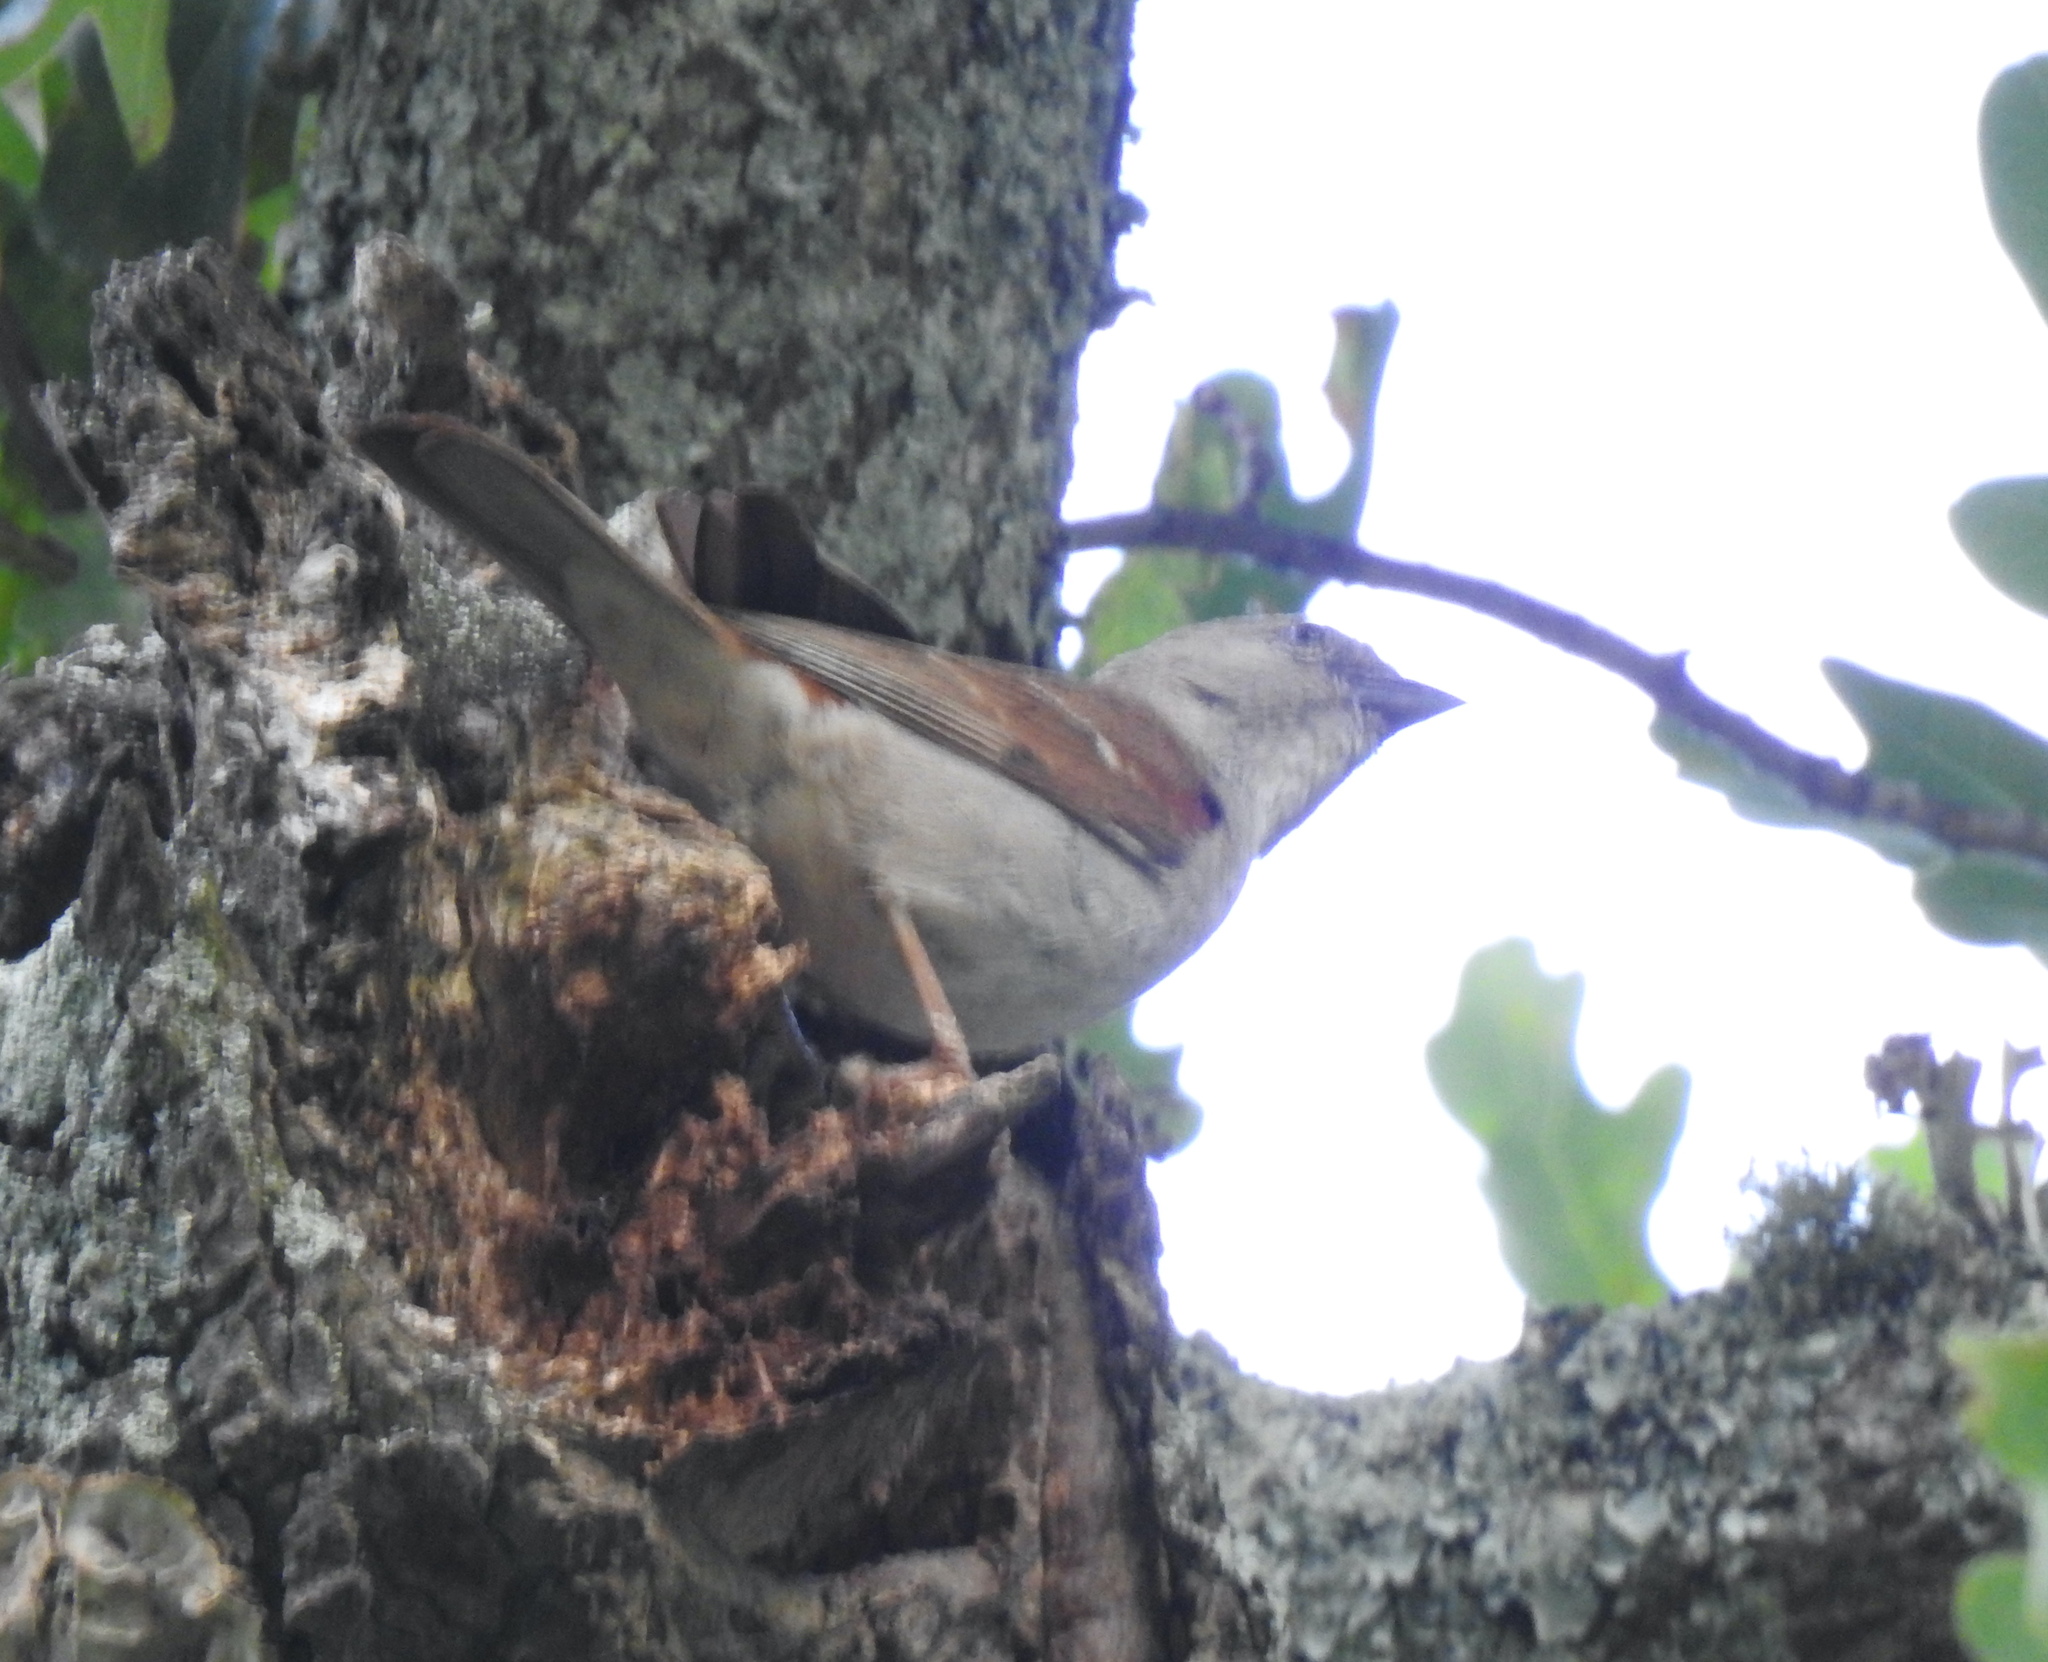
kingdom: Animalia
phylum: Chordata
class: Aves
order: Passeriformes
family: Passeridae
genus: Passer
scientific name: Passer diffusus
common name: Southern grey-headed sparrow
